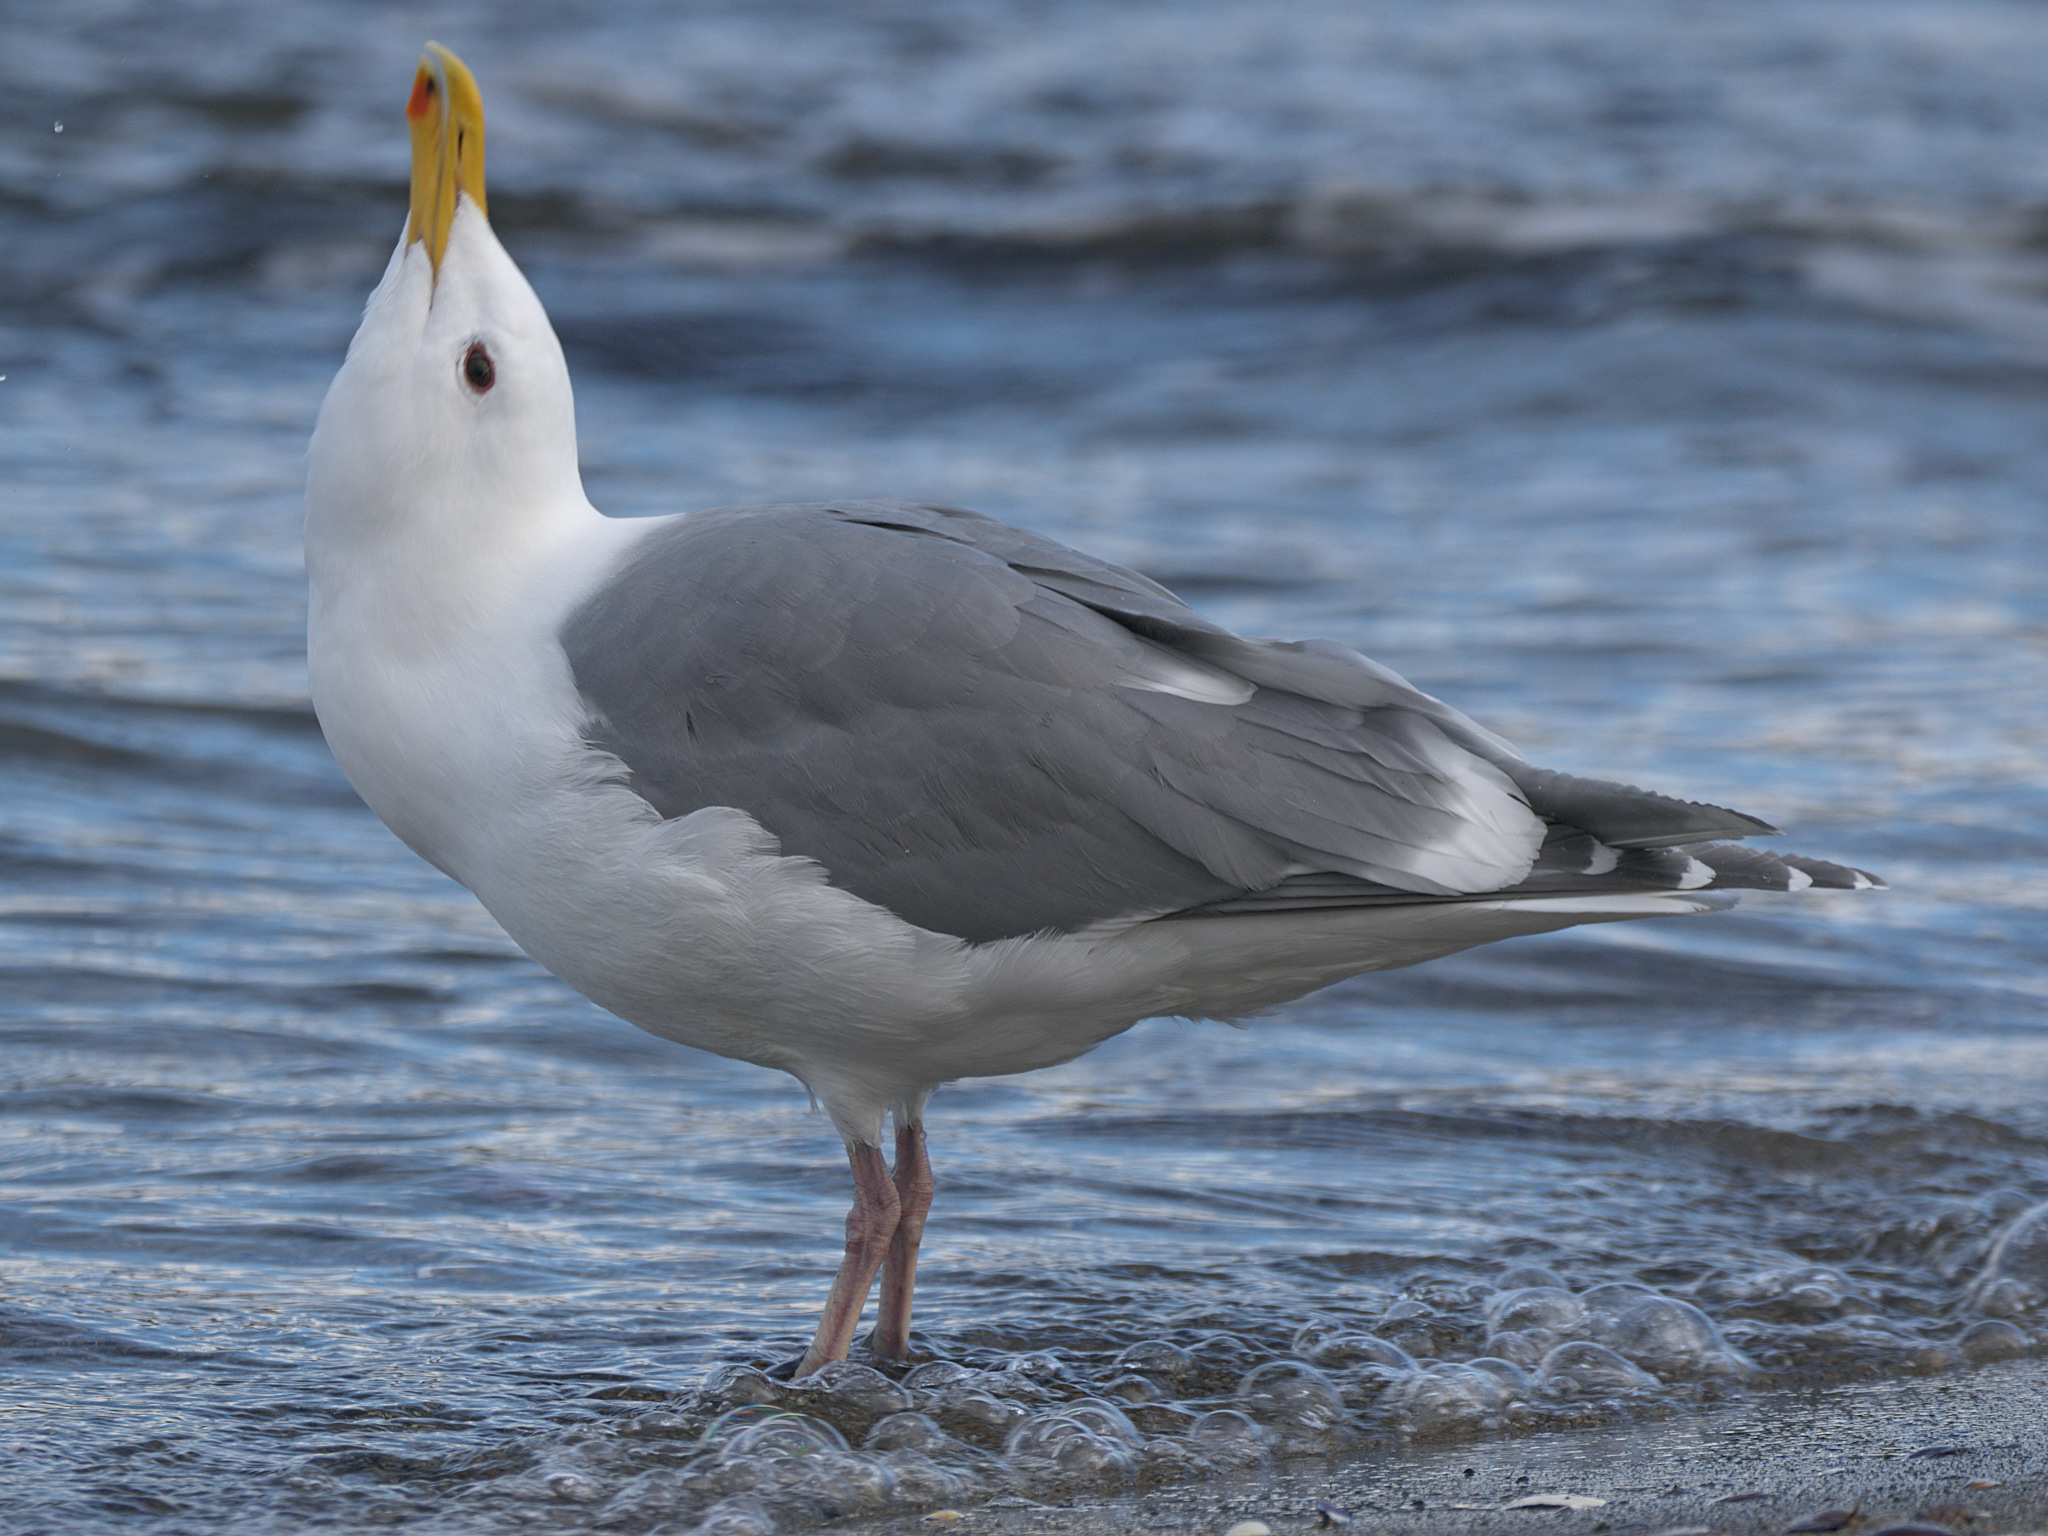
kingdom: Animalia
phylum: Chordata
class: Aves
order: Charadriiformes
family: Laridae
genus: Larus
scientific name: Larus
